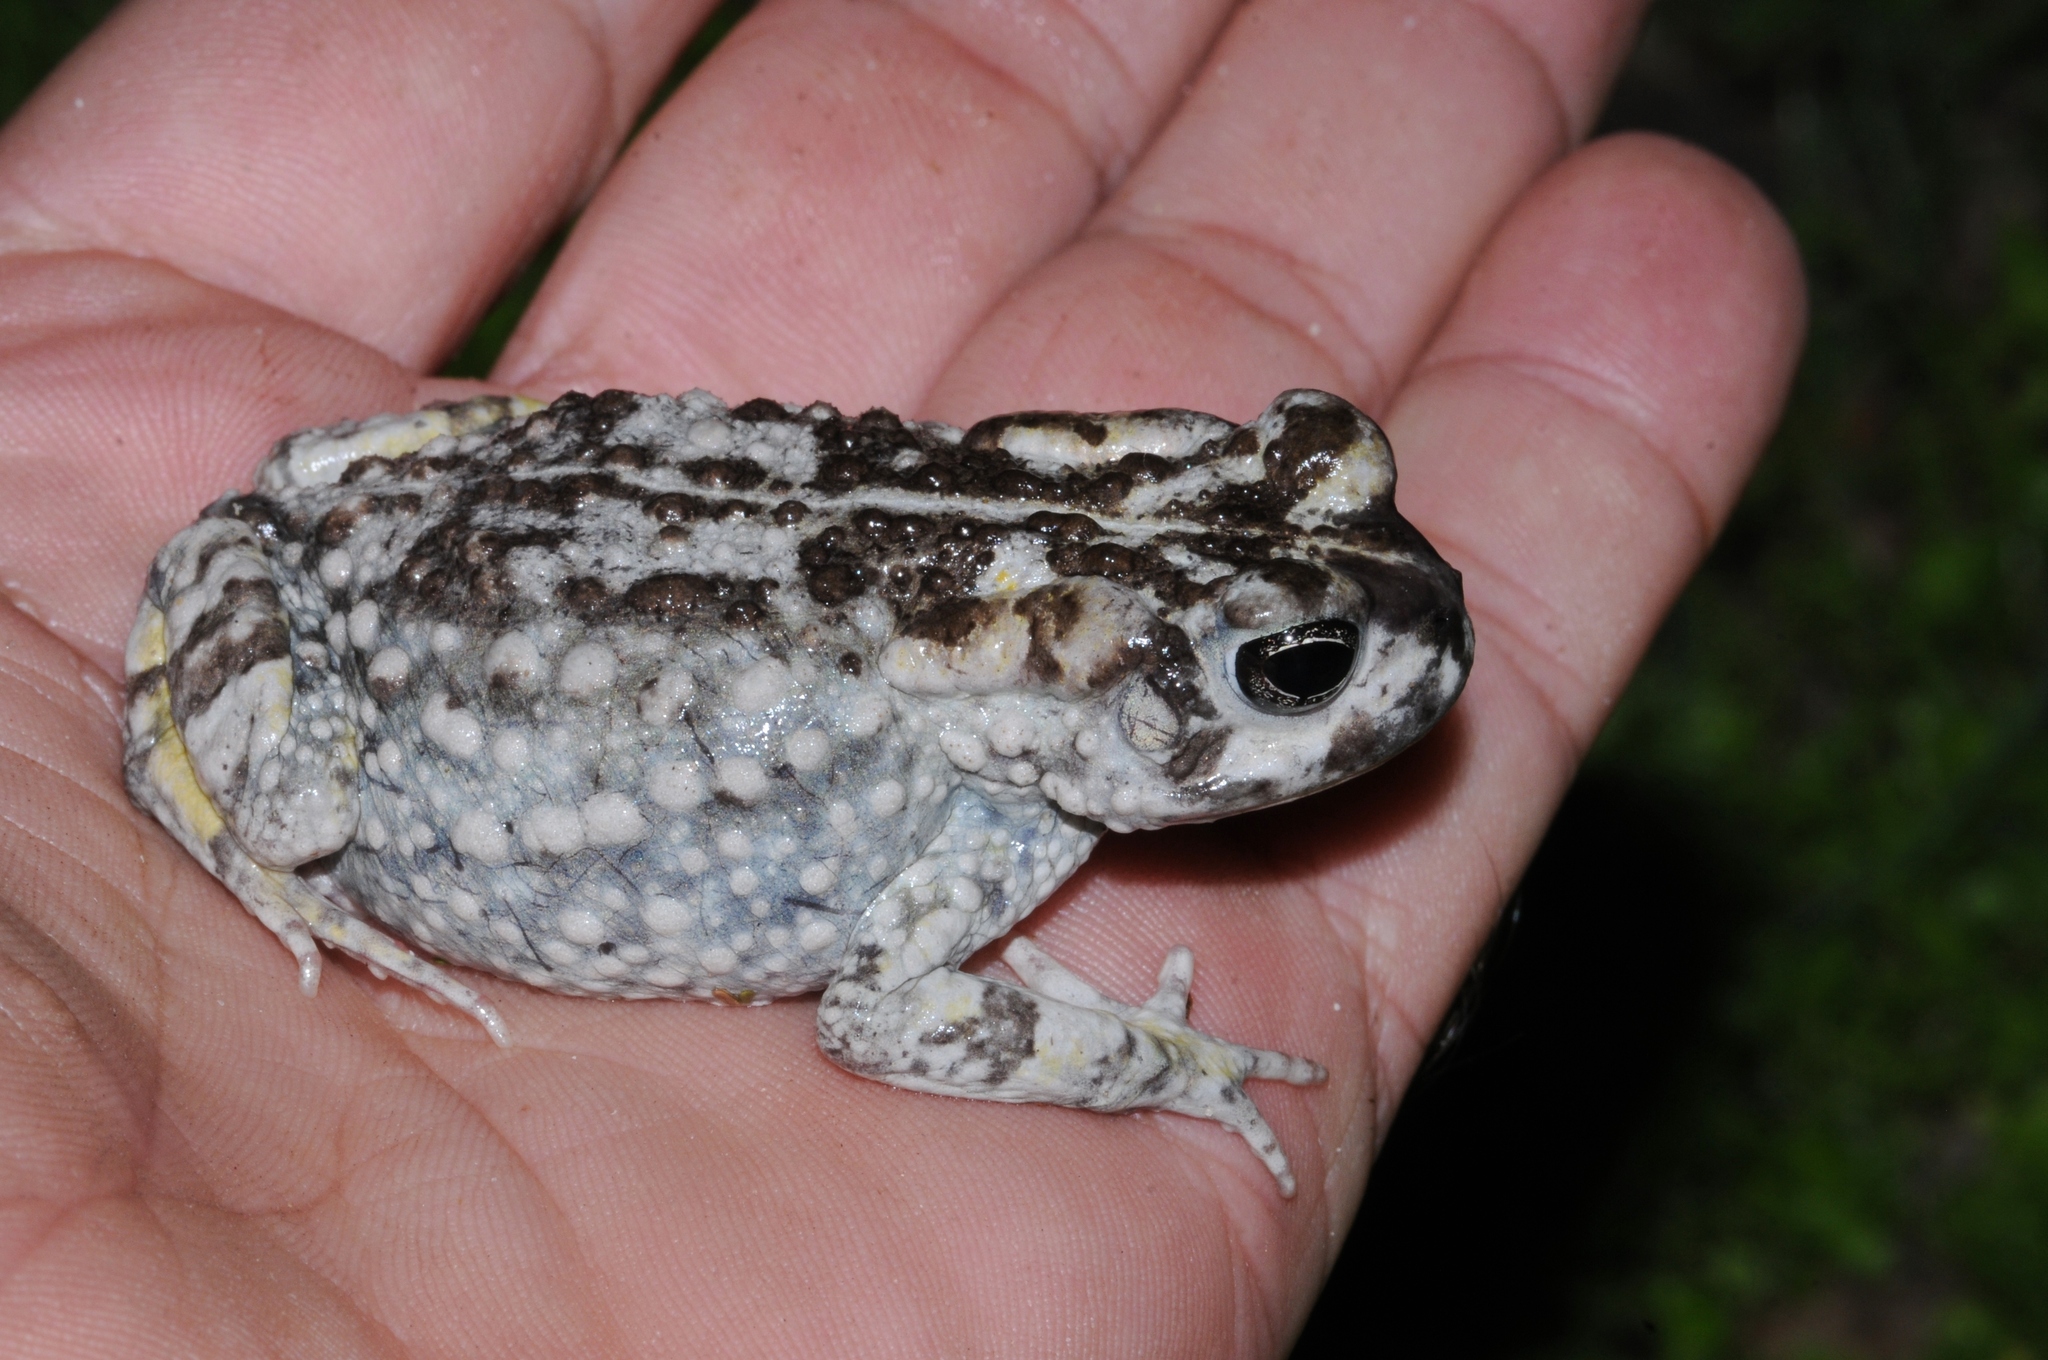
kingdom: Animalia
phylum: Chordata
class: Amphibia
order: Anura
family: Bufonidae
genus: Vandijkophrynus
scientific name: Vandijkophrynus angusticeps
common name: Sand toad
